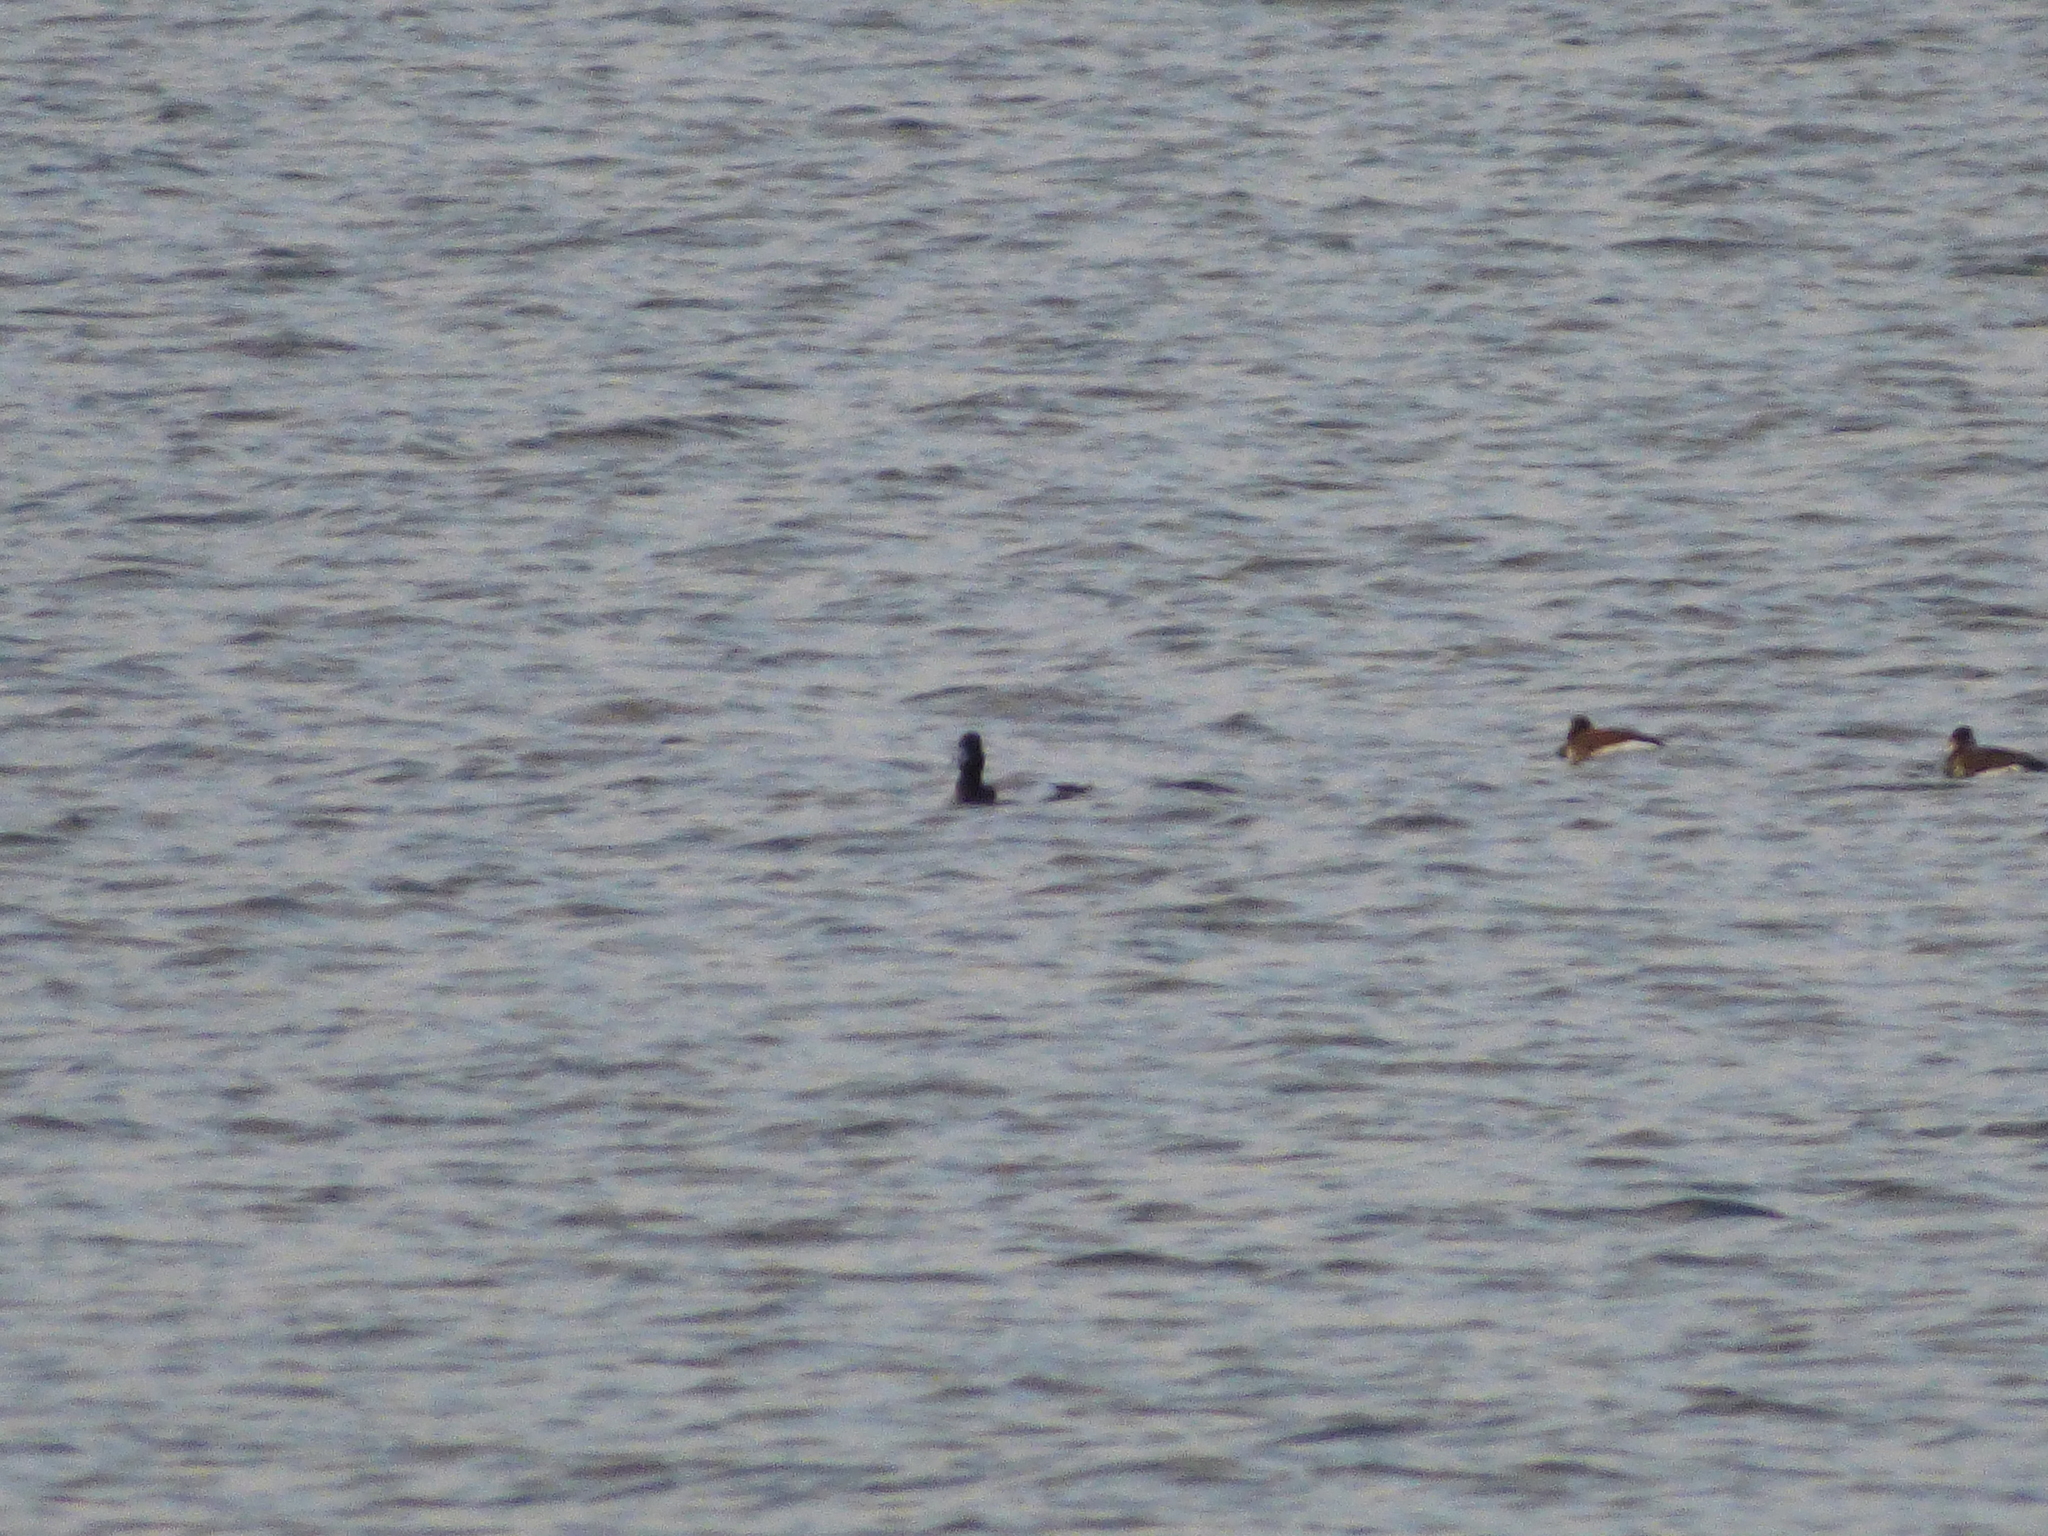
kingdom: Animalia
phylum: Chordata
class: Aves
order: Anseriformes
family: Anatidae
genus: Aythya
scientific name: Aythya affinis
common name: Lesser scaup
